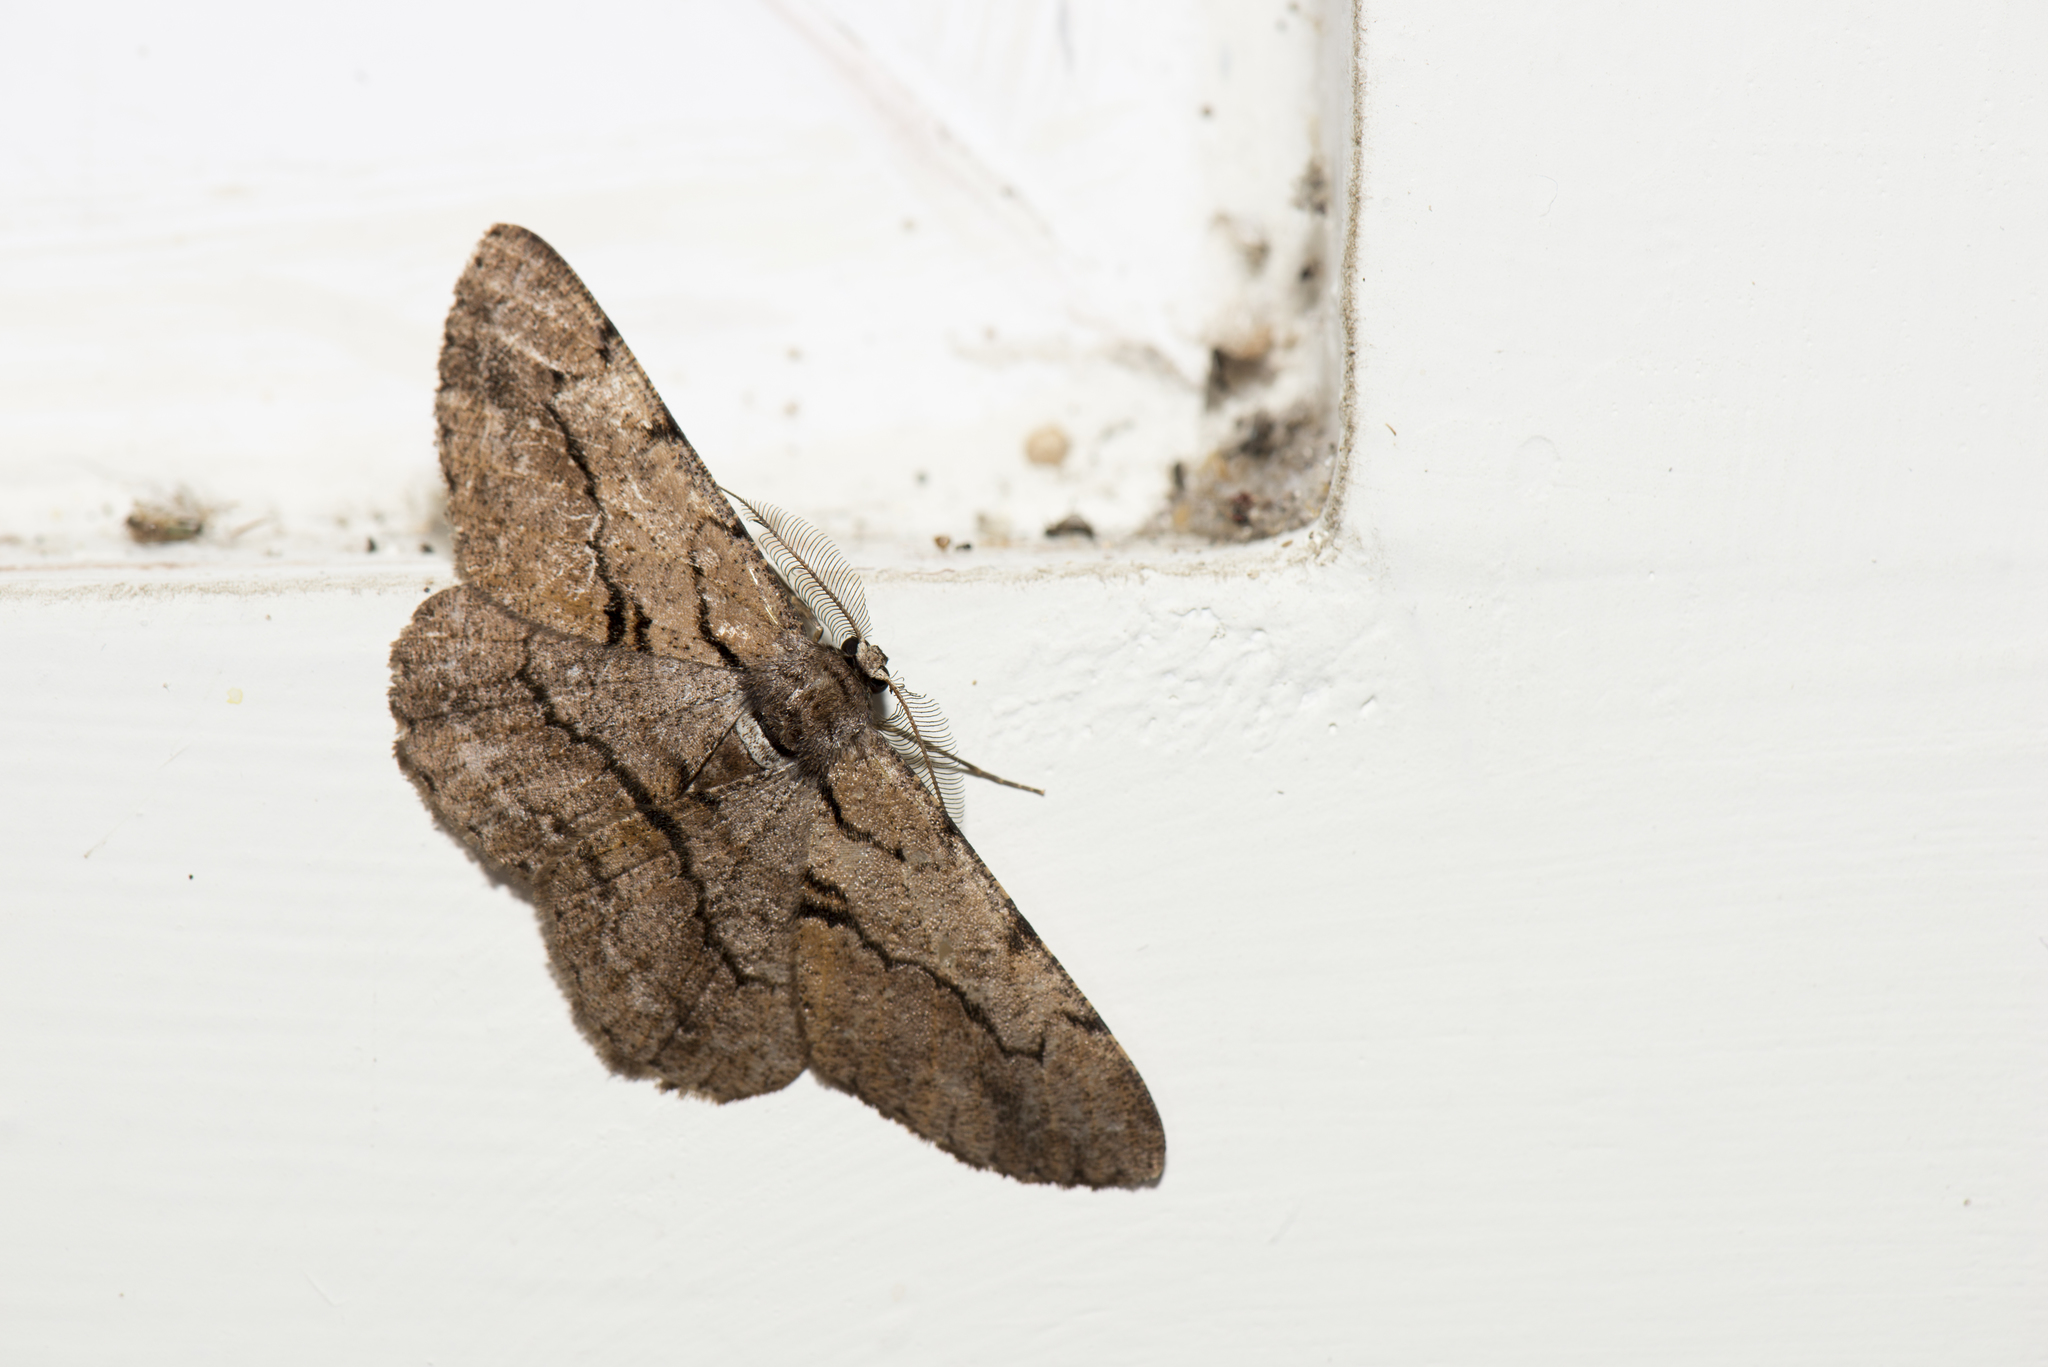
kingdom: Animalia
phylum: Arthropoda
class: Insecta
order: Lepidoptera
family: Geometridae
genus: Hypomecis
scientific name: Hypomecis obliquisigna
